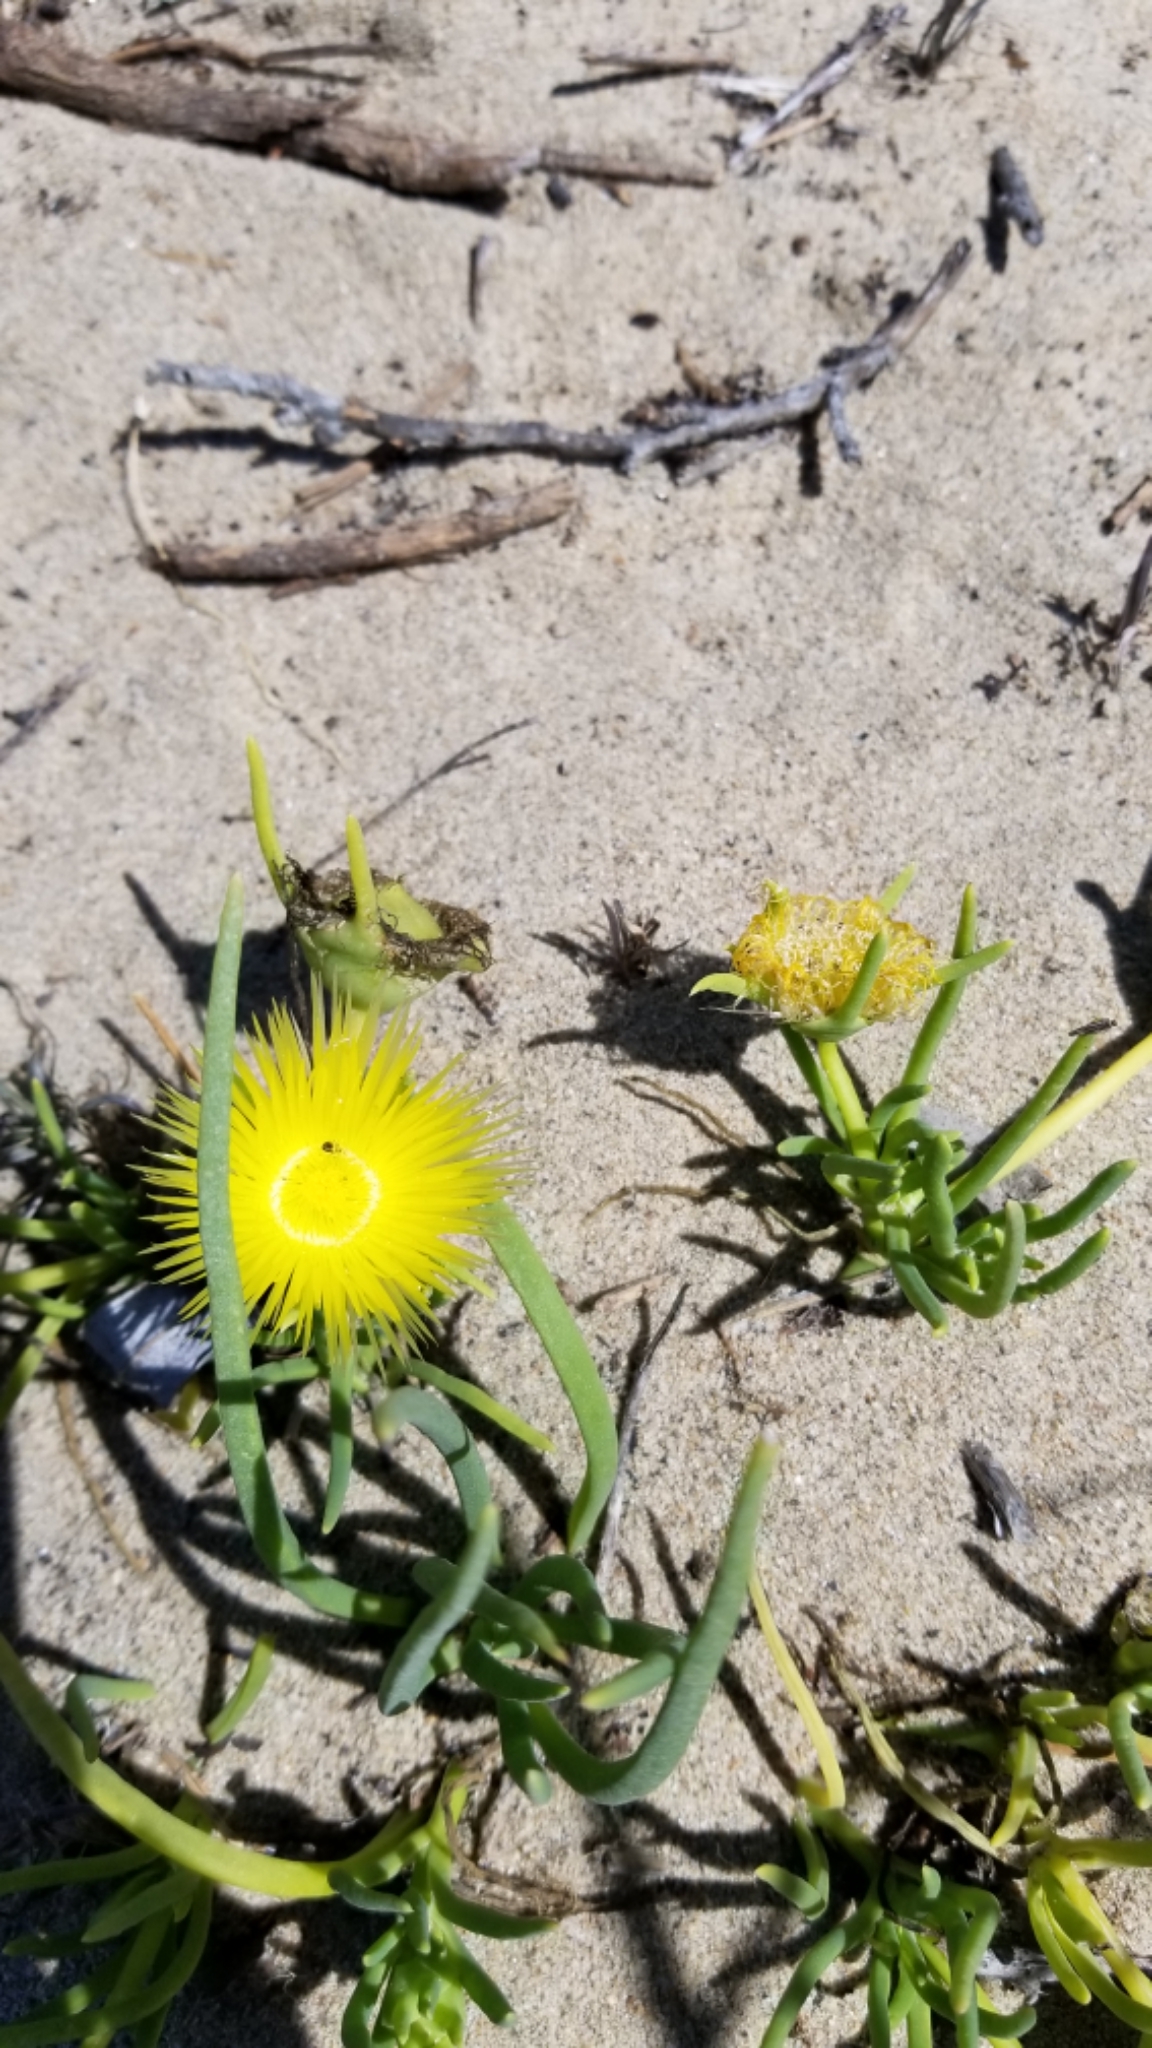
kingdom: Plantae
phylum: Tracheophyta
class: Magnoliopsida
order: Caryophyllales
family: Aizoaceae
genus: Conicosia
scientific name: Conicosia pugioniformis
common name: Narrow-leaved iceplant
